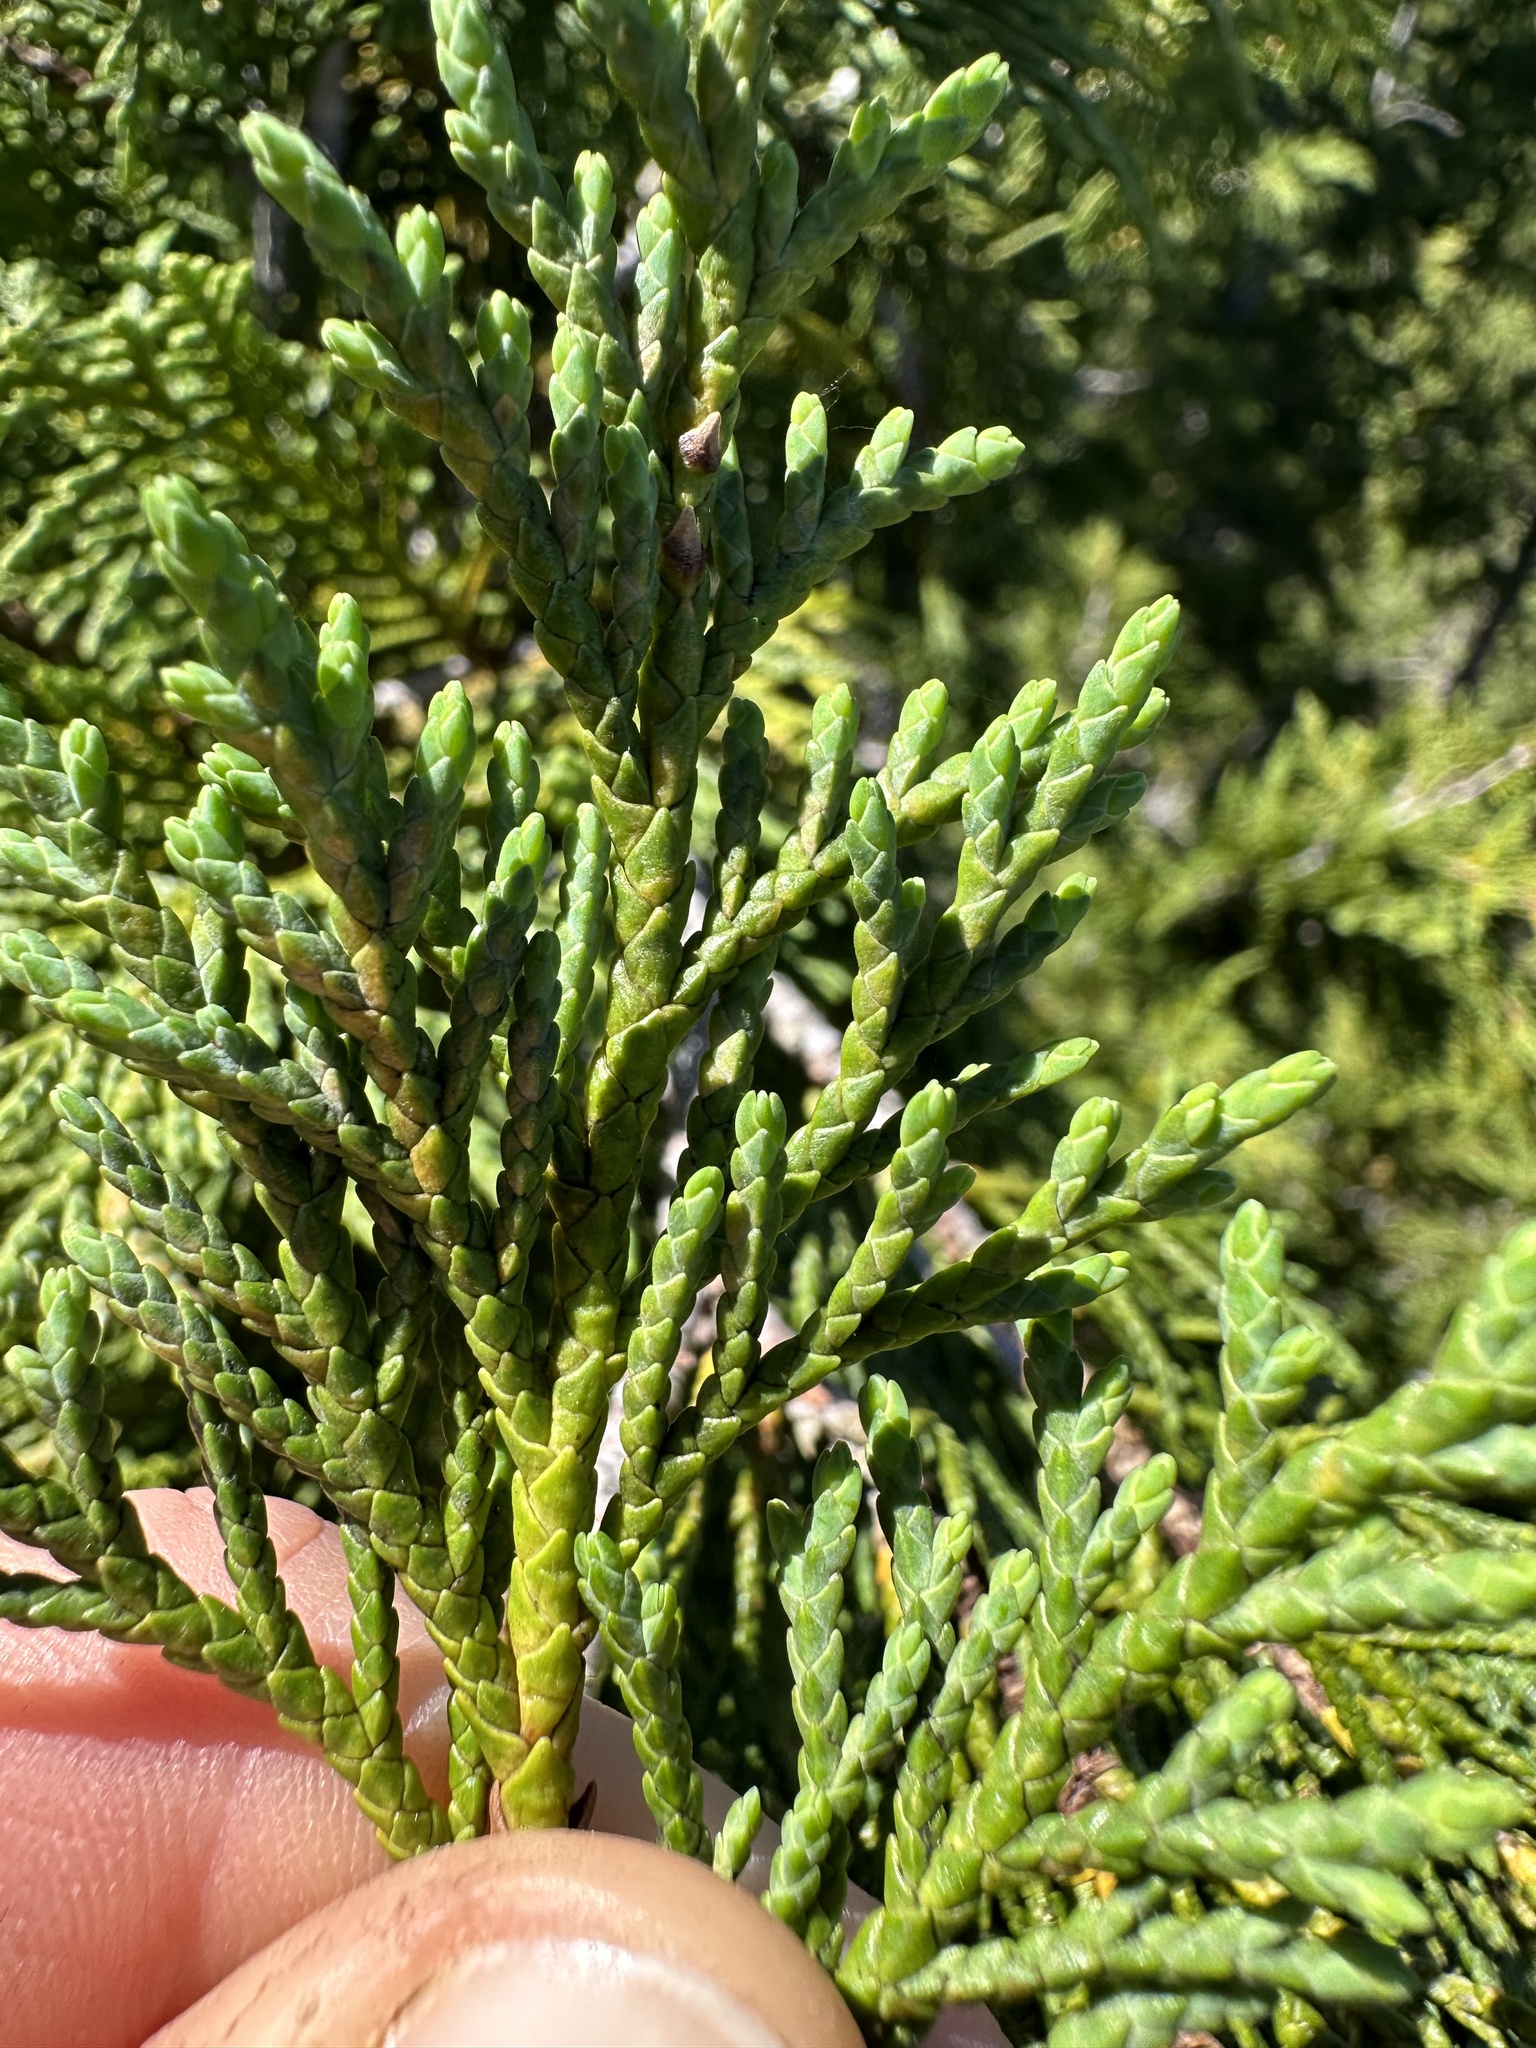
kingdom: Plantae
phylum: Tracheophyta
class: Pinopsida
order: Pinales
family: Cupressaceae
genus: Xanthocyparis
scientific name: Xanthocyparis nootkatensis
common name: Nootka cypress
